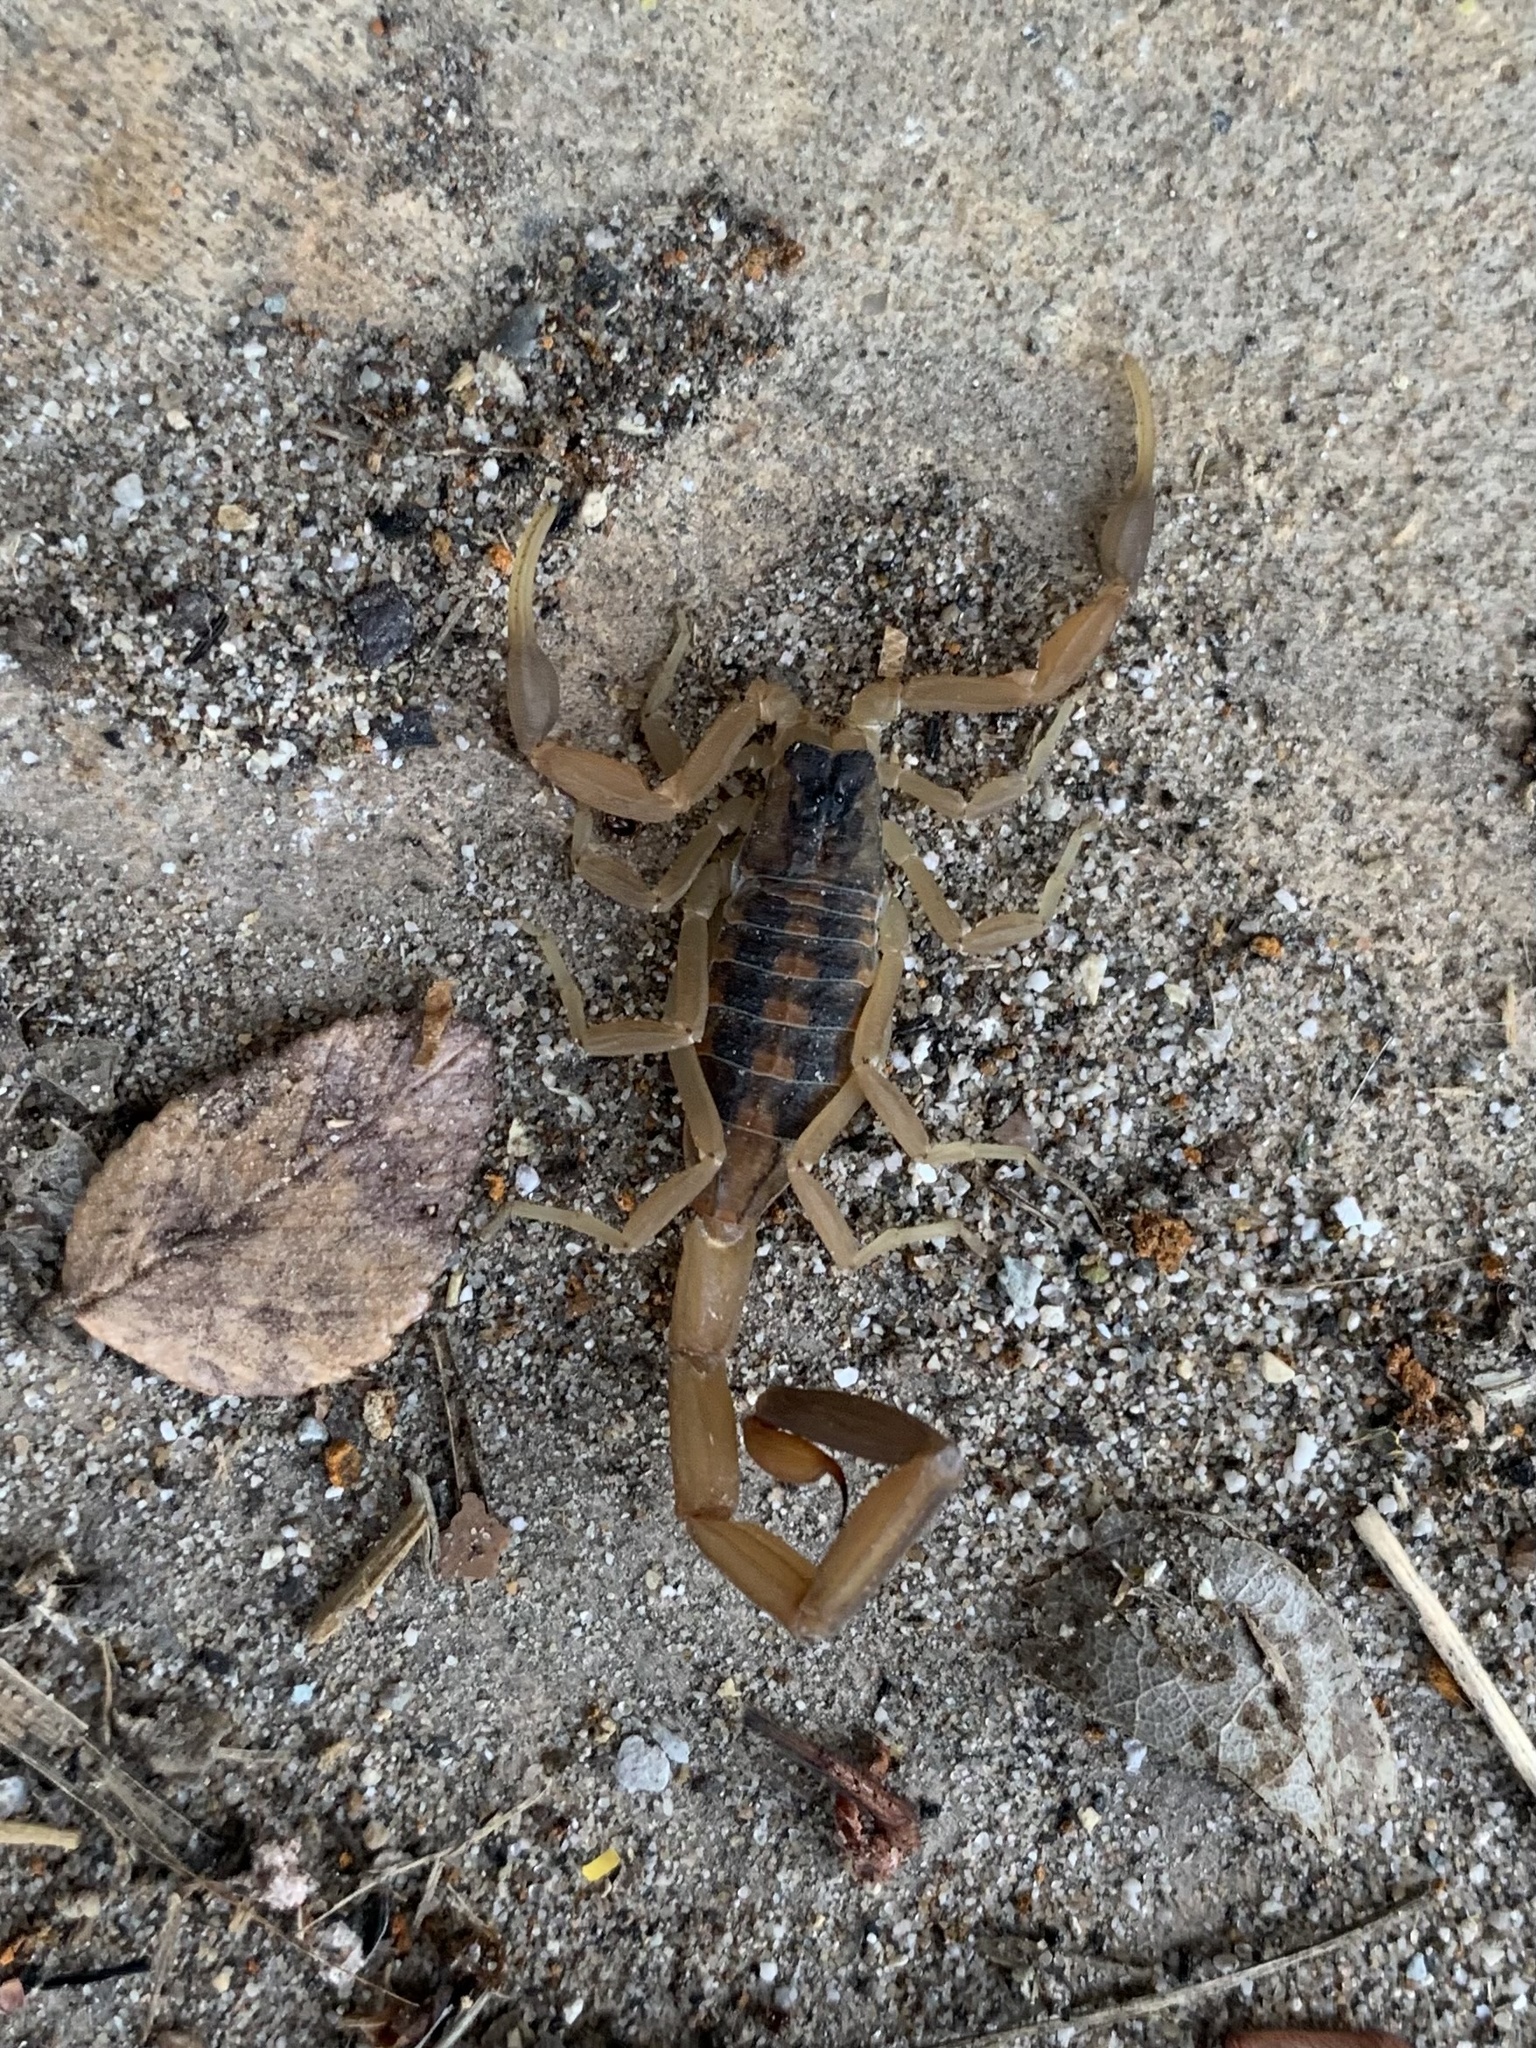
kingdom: Animalia
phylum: Arthropoda
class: Arachnida
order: Scorpiones
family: Buthidae
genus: Centruroides
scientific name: Centruroides vittatus
